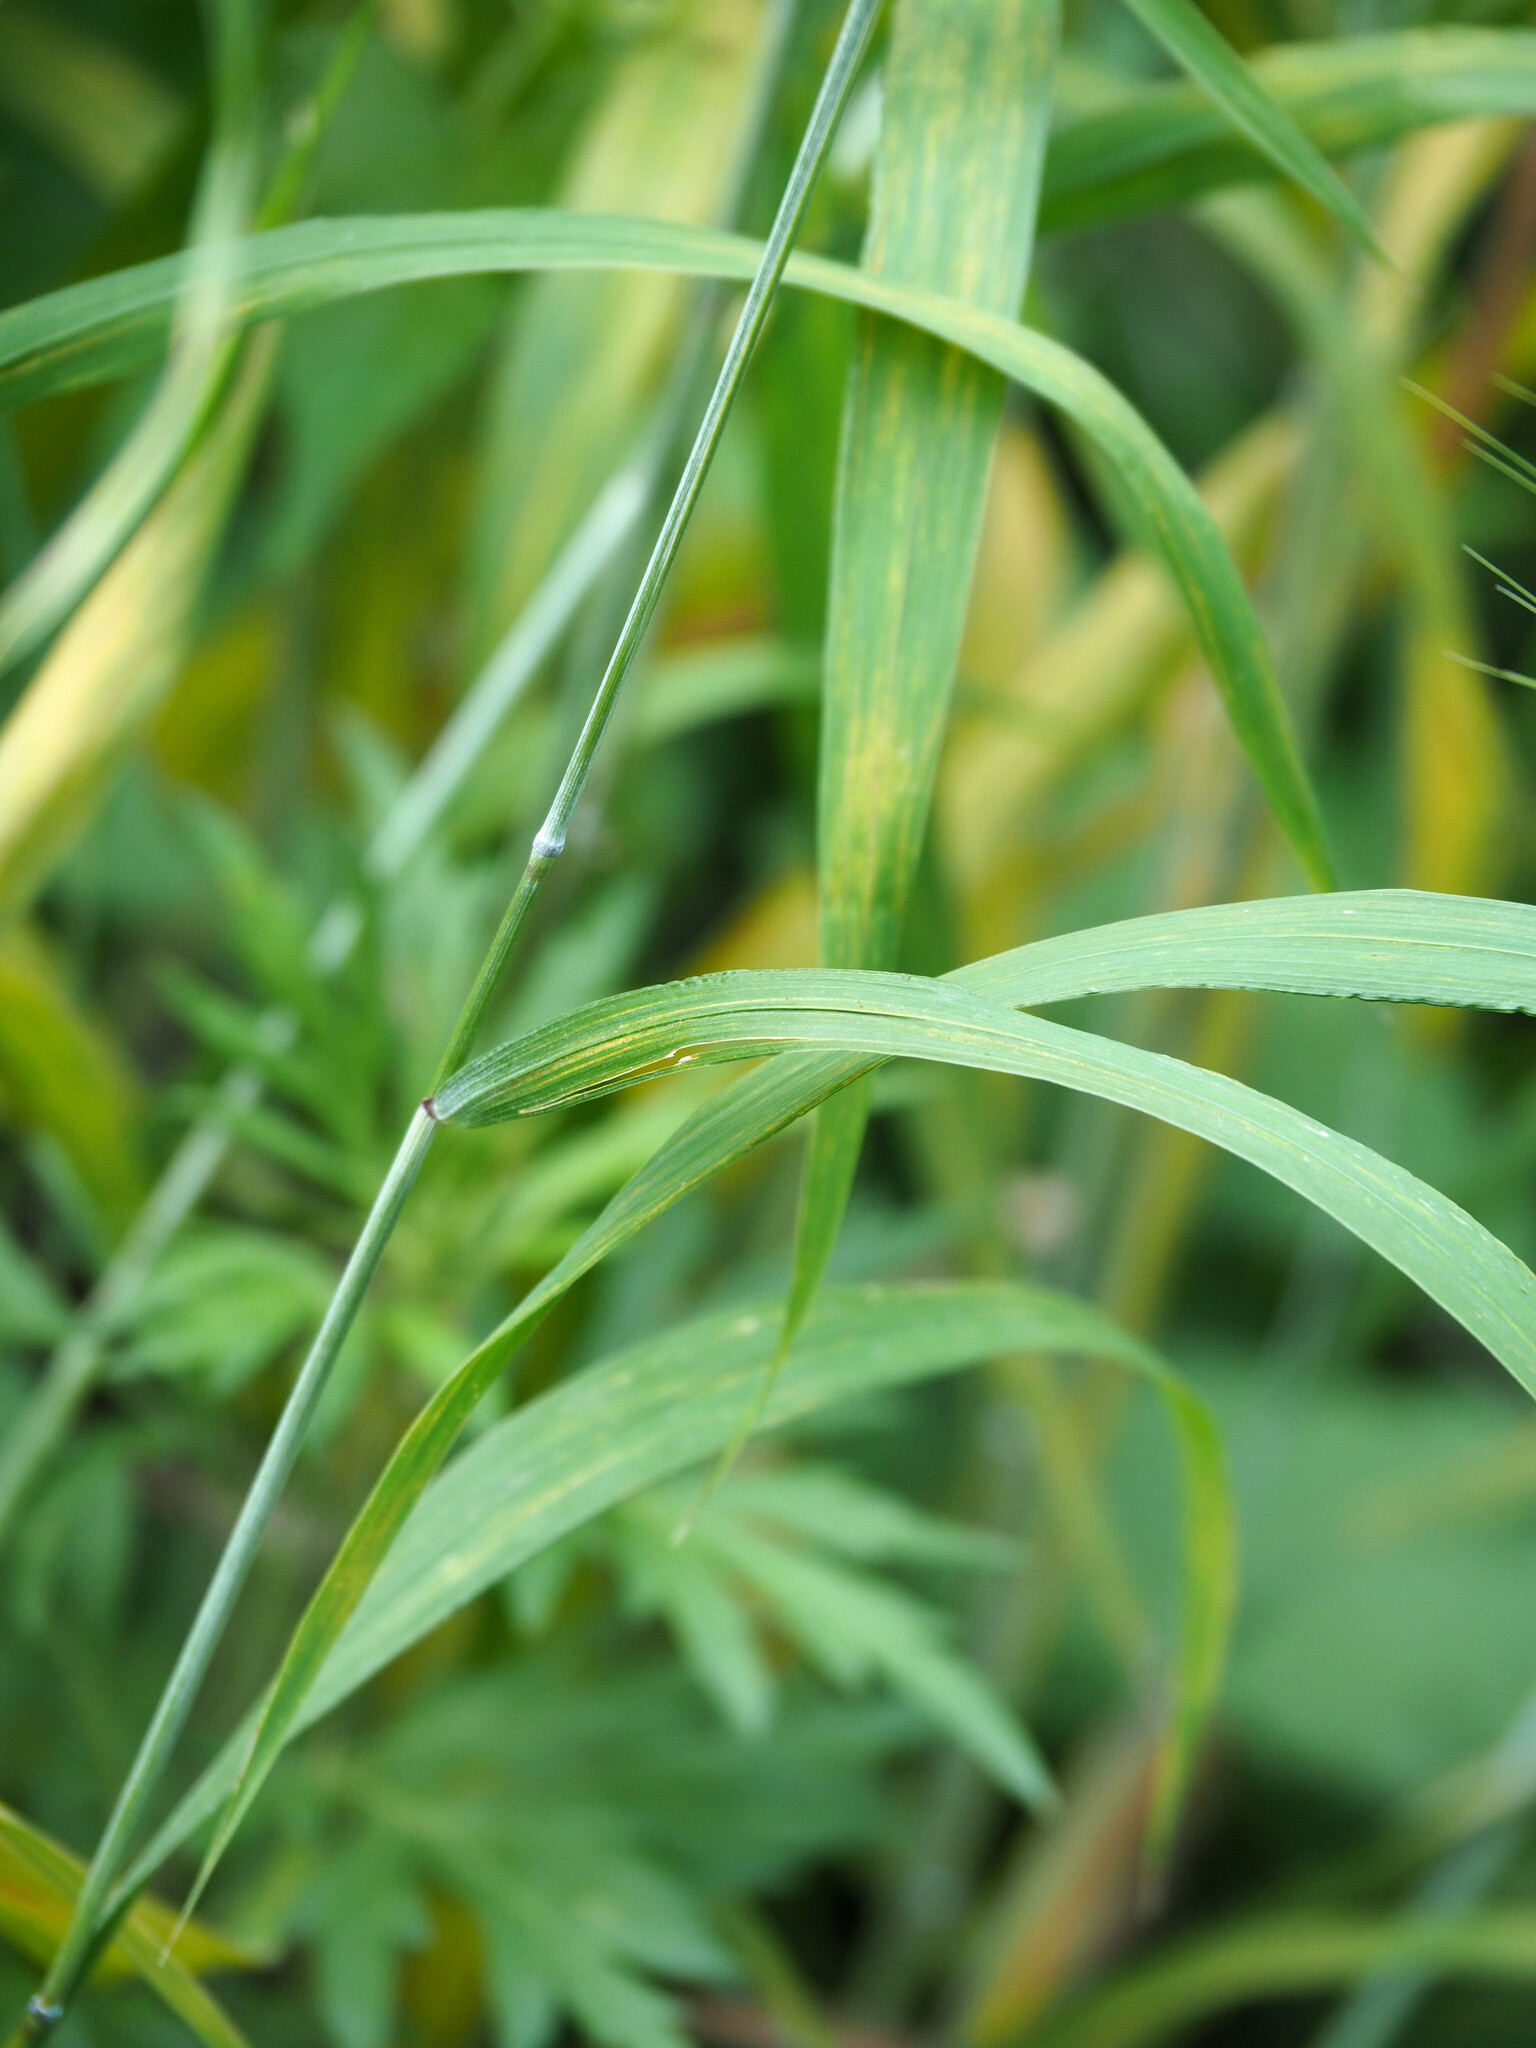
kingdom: Plantae
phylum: Tracheophyta
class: Liliopsida
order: Poales
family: Poaceae
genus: Elymus
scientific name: Elymus hystrix
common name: Bottlebrush grass
